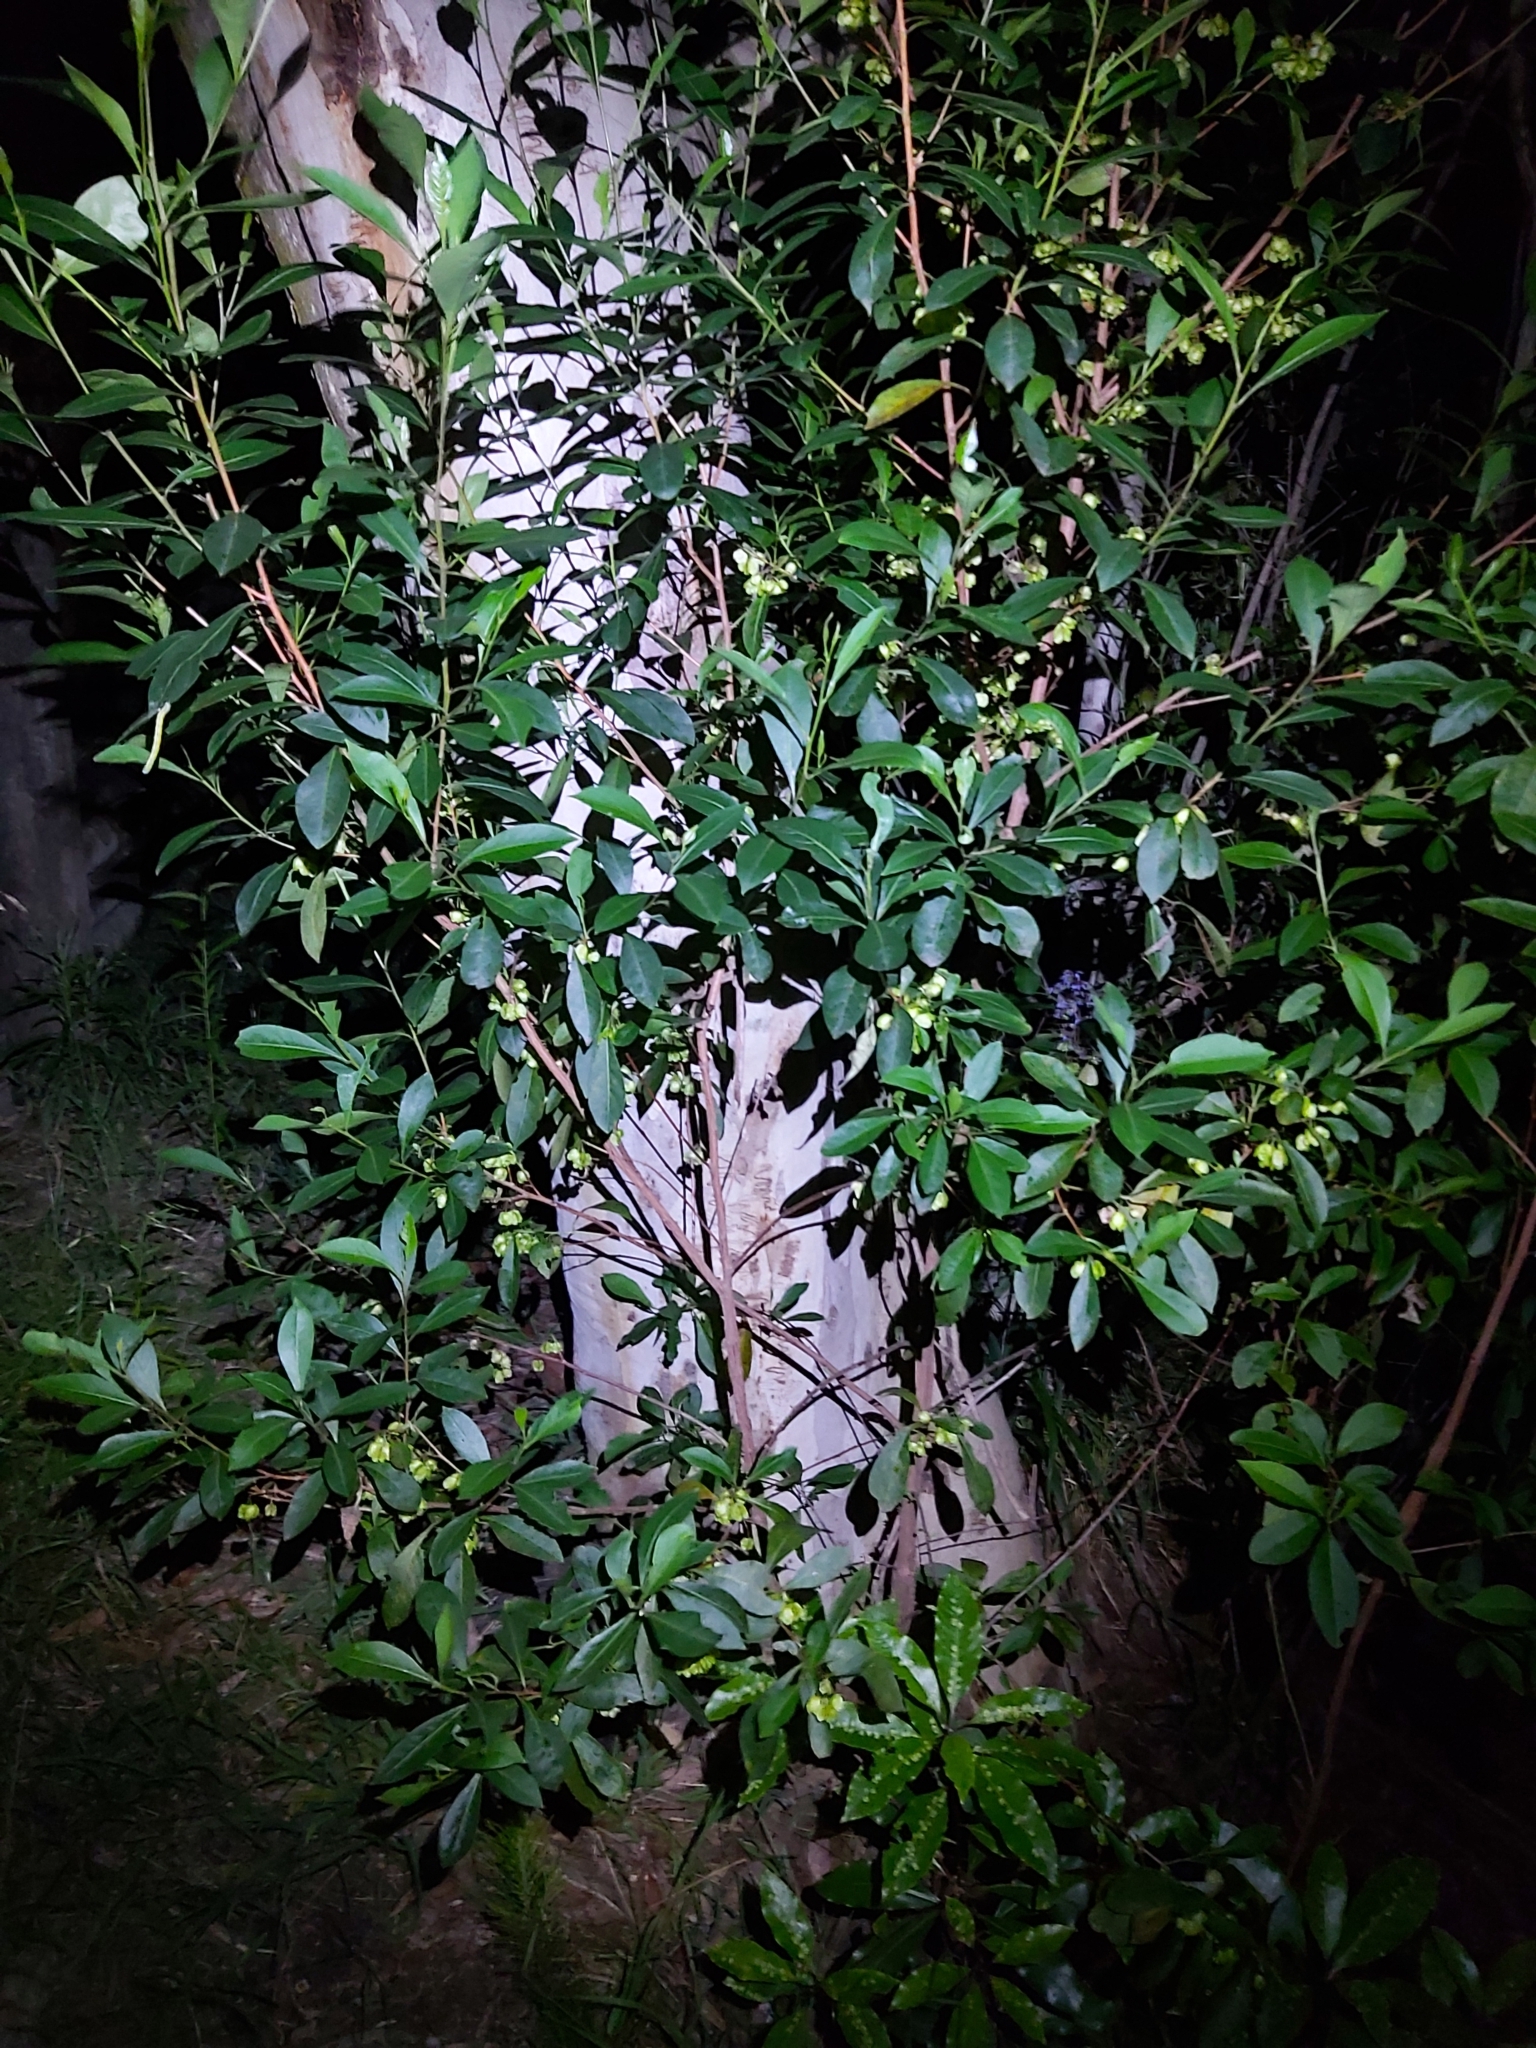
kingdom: Plantae
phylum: Tracheophyta
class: Magnoliopsida
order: Sapindales
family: Sapindaceae
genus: Dodonaea
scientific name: Dodonaea triquetra
